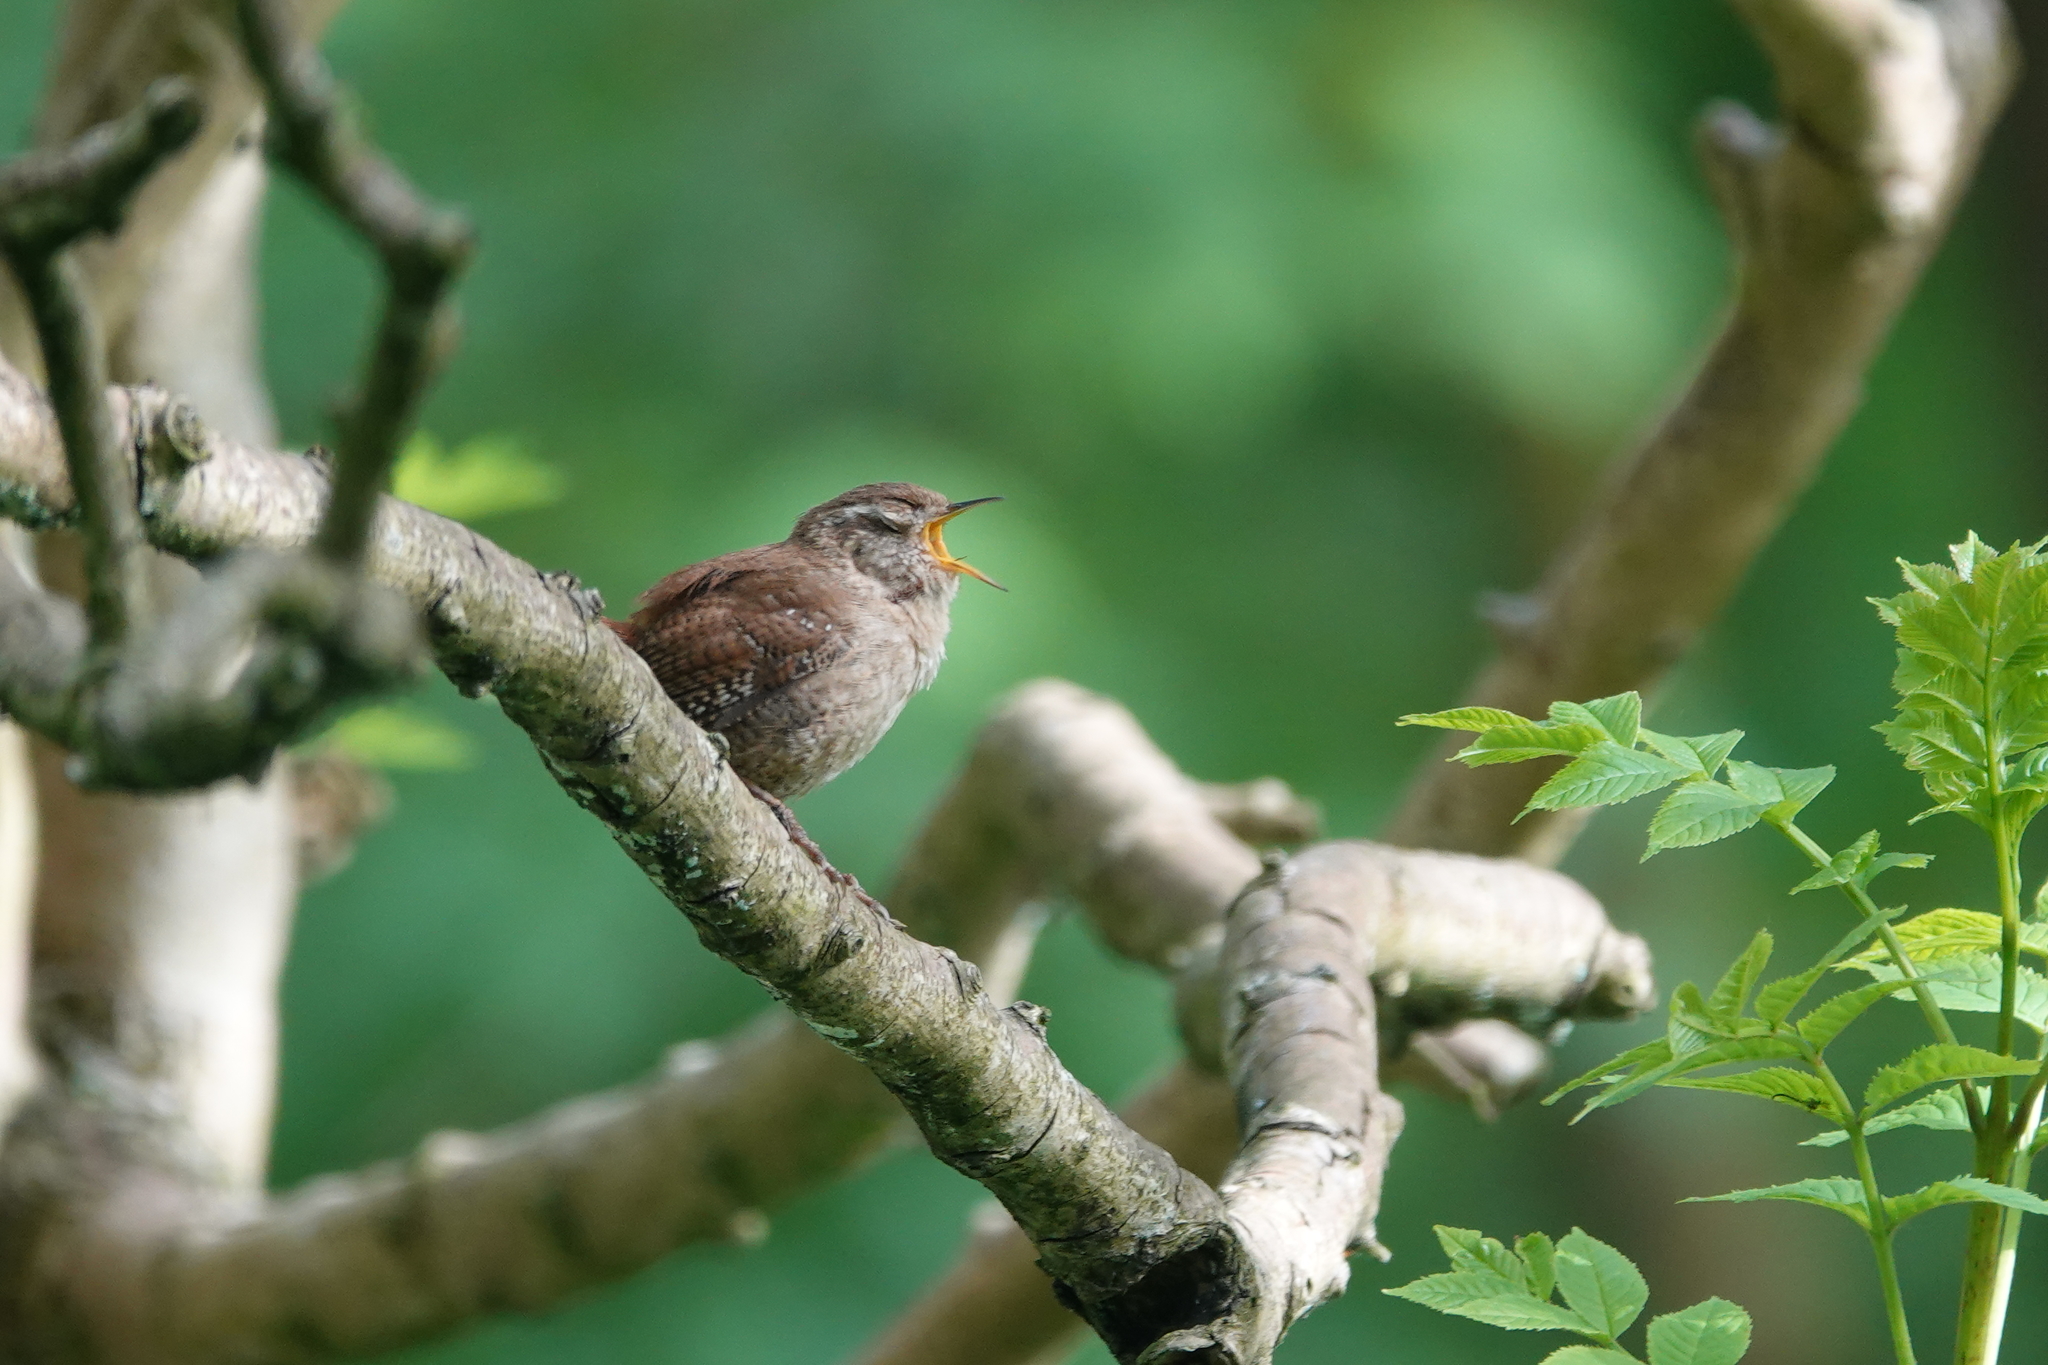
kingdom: Animalia
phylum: Chordata
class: Aves
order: Passeriformes
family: Troglodytidae
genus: Troglodytes
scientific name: Troglodytes troglodytes
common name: Eurasian wren
